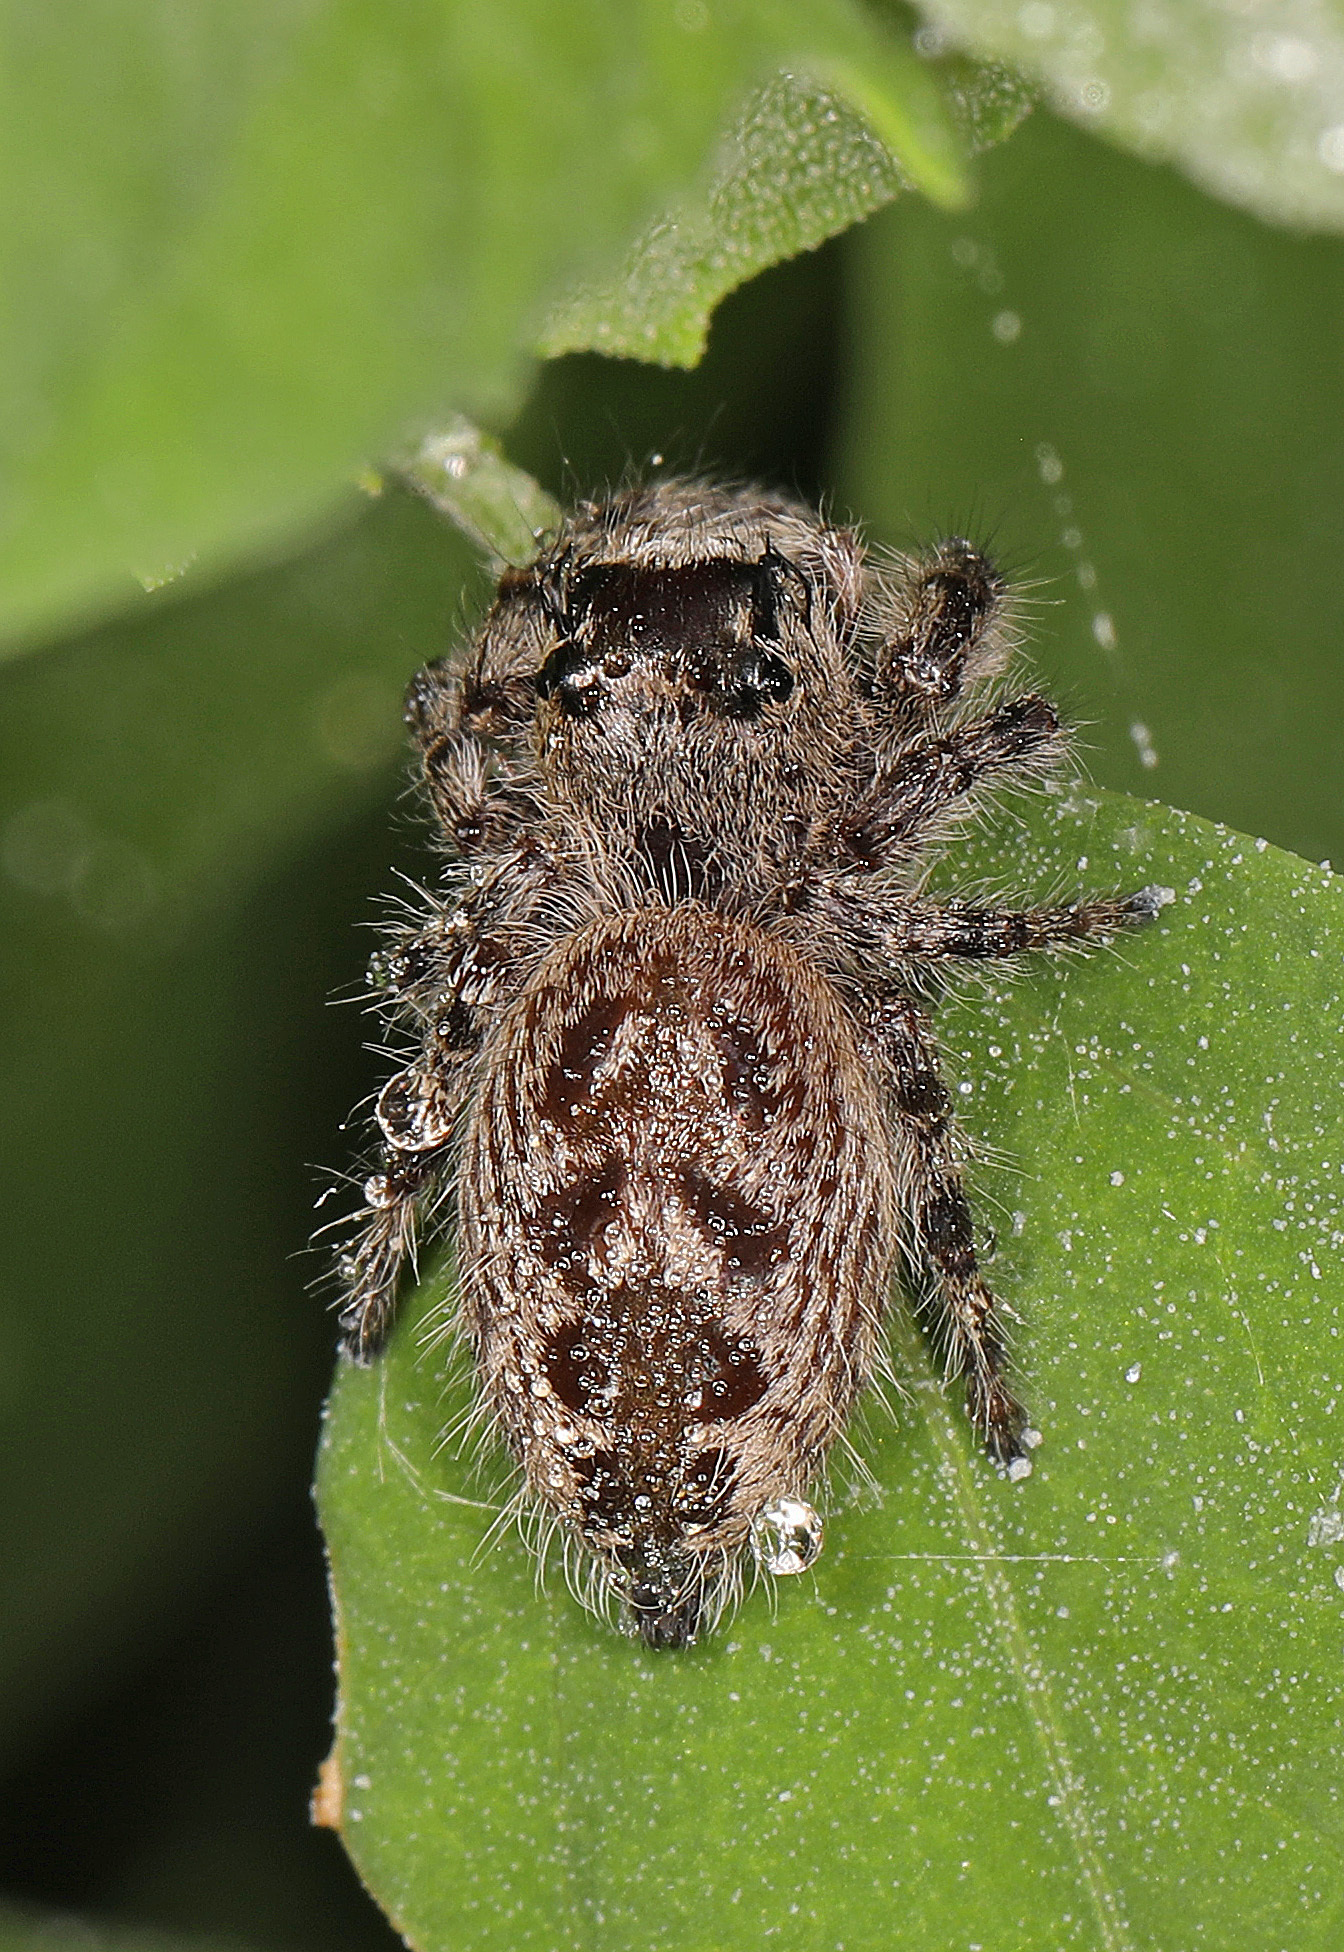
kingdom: Animalia
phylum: Arthropoda
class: Arachnida
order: Araneae
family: Salticidae
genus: Phidippus
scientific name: Phidippus otiosus
